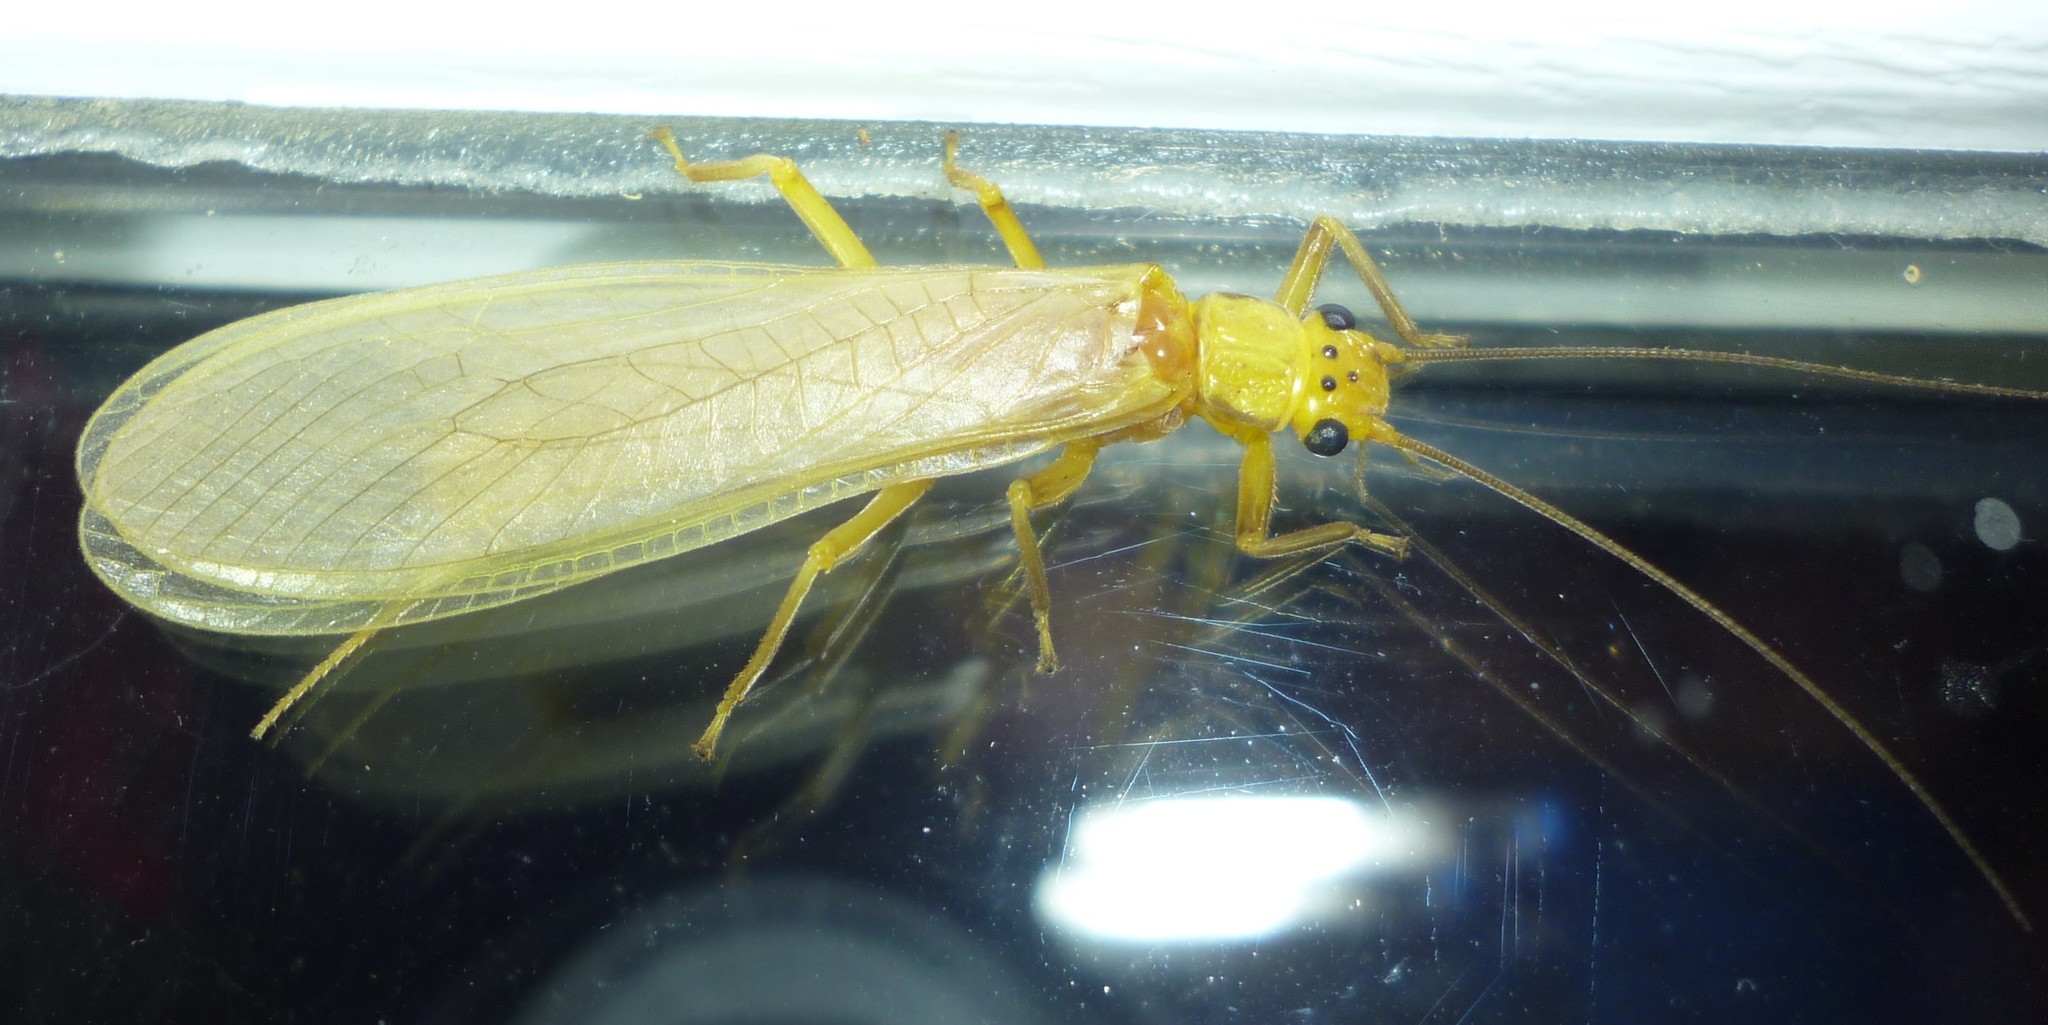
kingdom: Animalia
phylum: Arthropoda
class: Insecta
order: Plecoptera
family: Perlidae
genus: Eccoptura
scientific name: Eccoptura xanthenes
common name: Yellow stone
